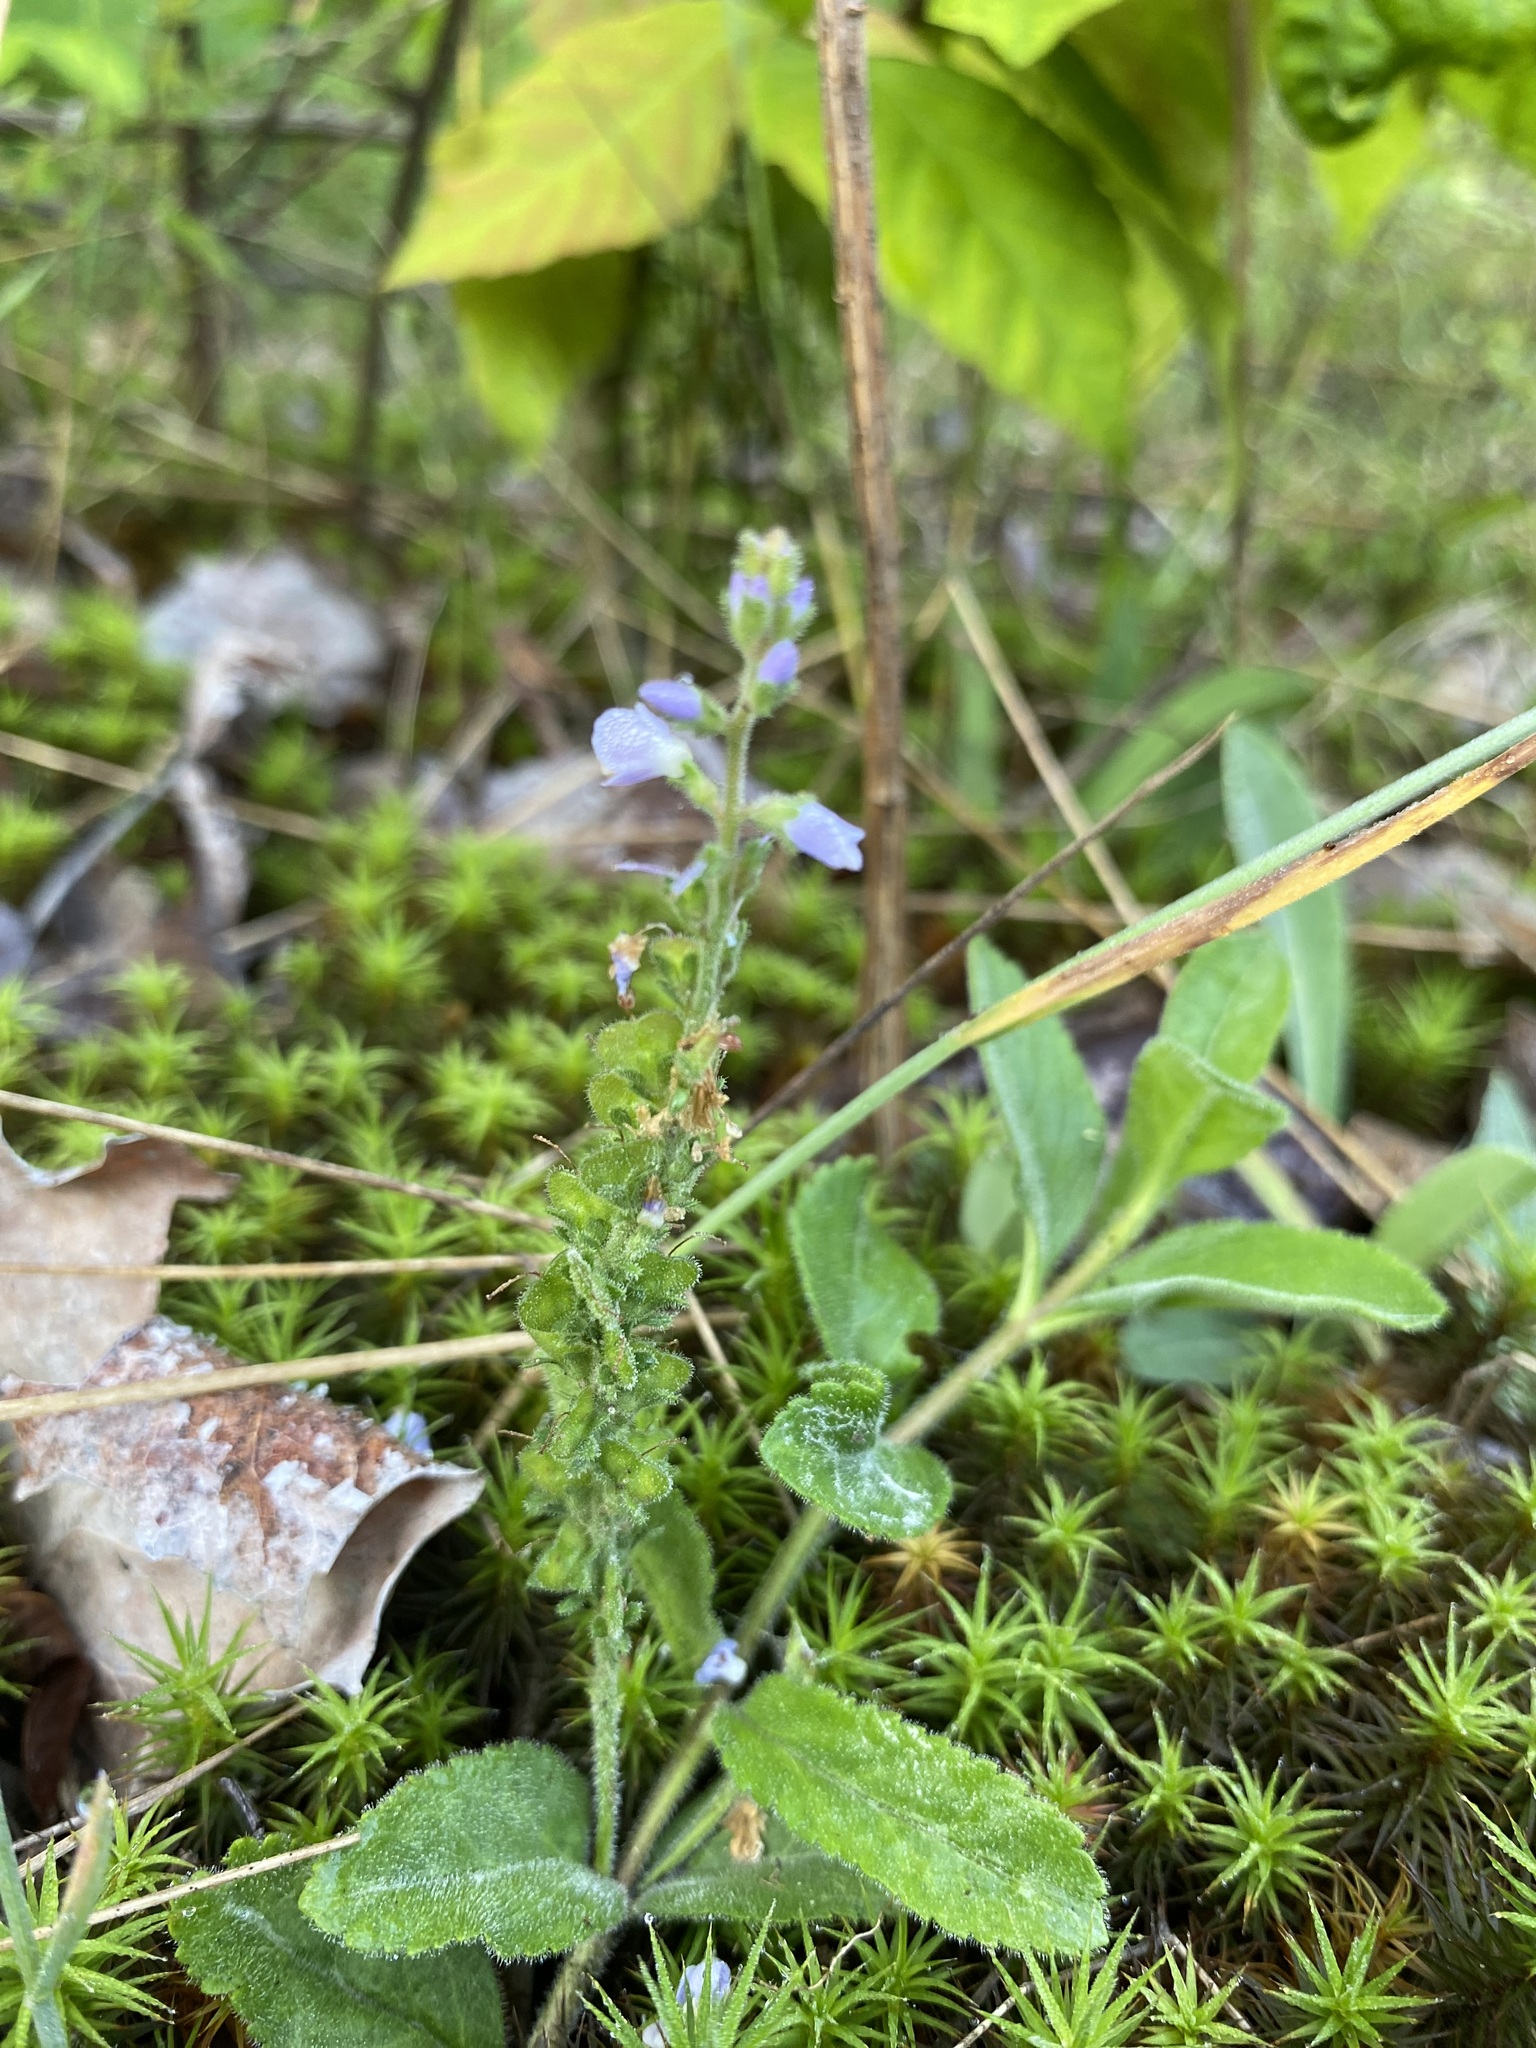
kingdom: Plantae
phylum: Tracheophyta
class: Magnoliopsida
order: Lamiales
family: Plantaginaceae
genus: Veronica
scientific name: Veronica officinalis
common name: Common speedwell
